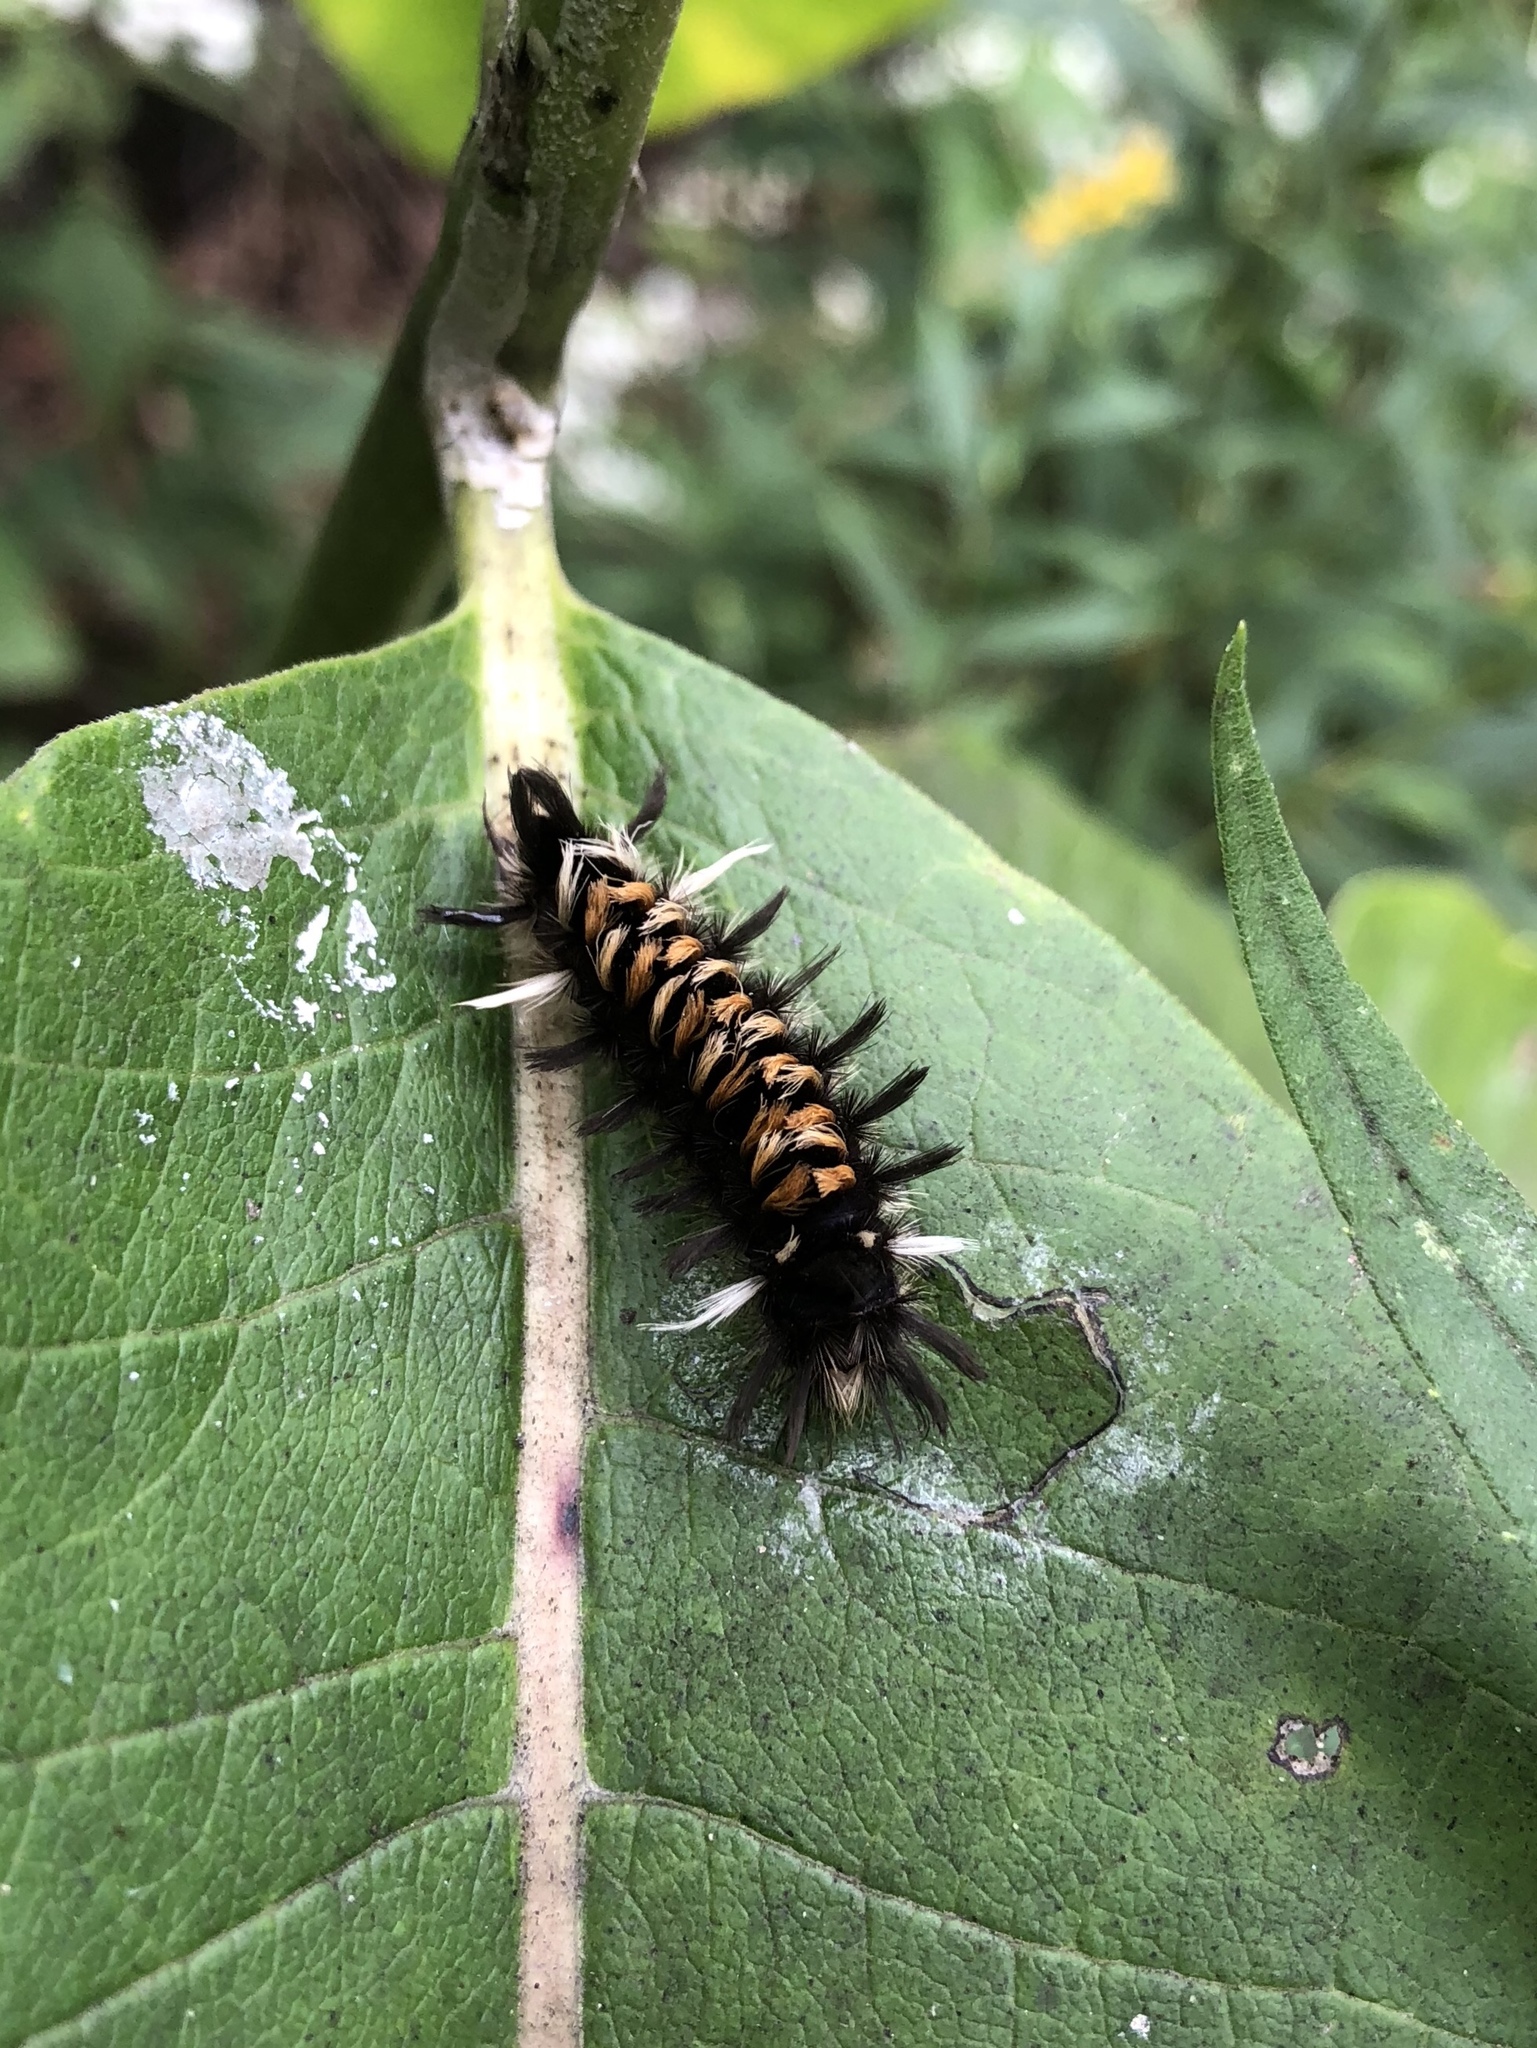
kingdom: Animalia
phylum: Arthropoda
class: Insecta
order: Lepidoptera
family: Erebidae
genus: Euchaetes
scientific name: Euchaetes egle
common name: Milkweed tussock moth
